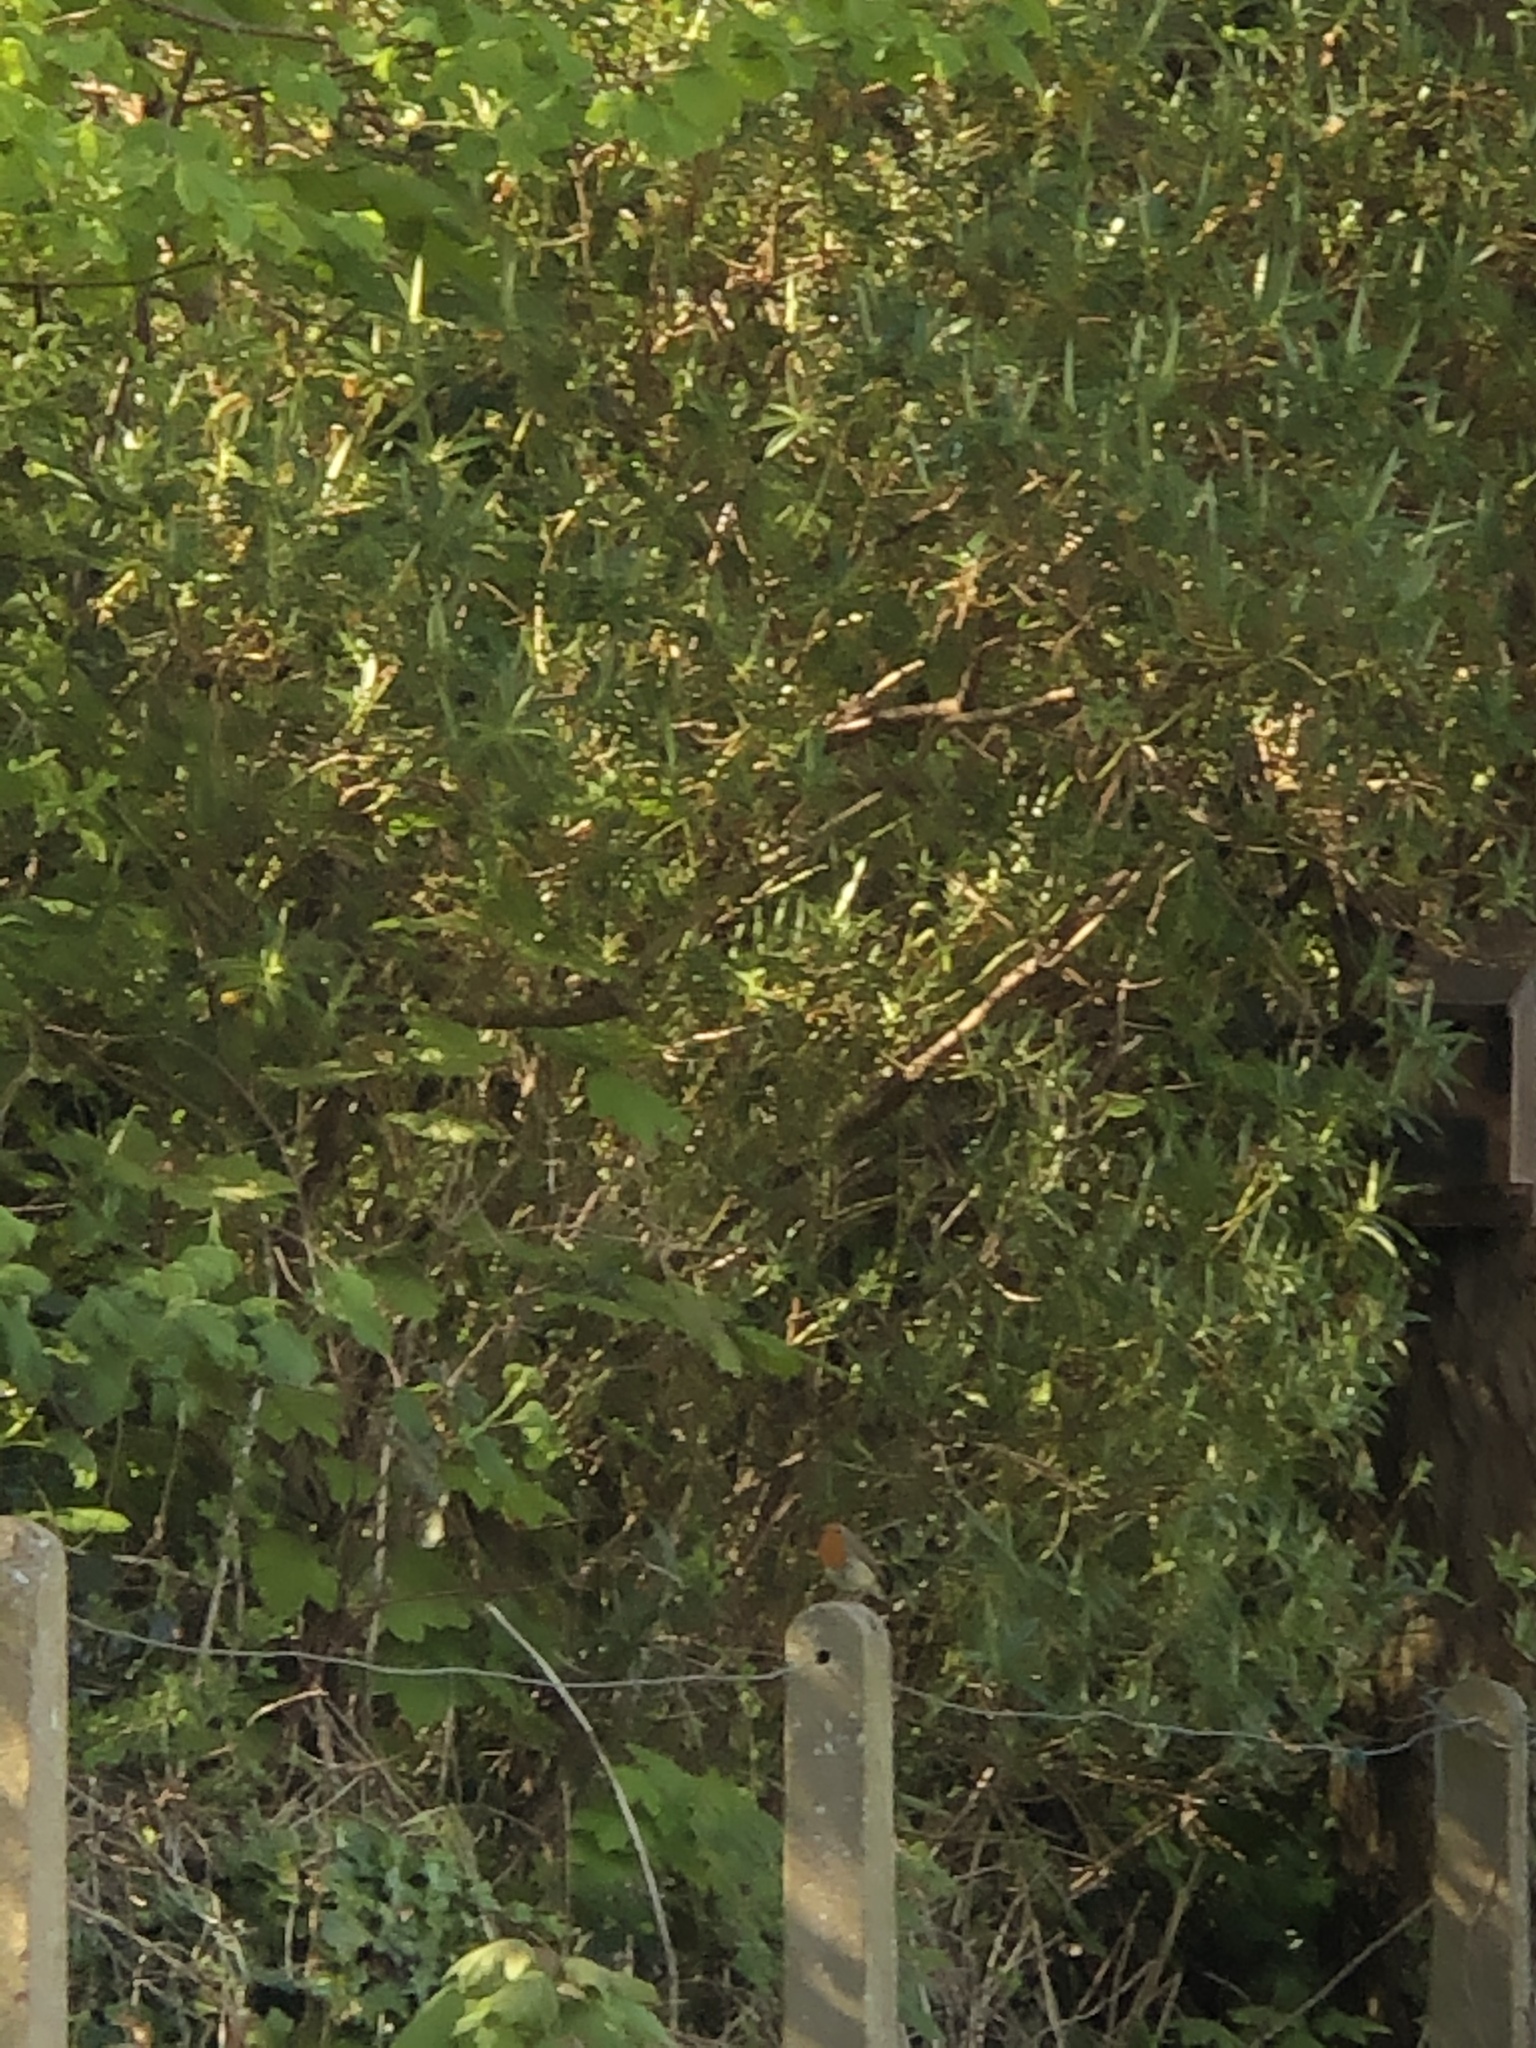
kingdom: Animalia
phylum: Chordata
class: Aves
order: Passeriformes
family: Muscicapidae
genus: Erithacus
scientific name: Erithacus rubecula
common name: European robin
